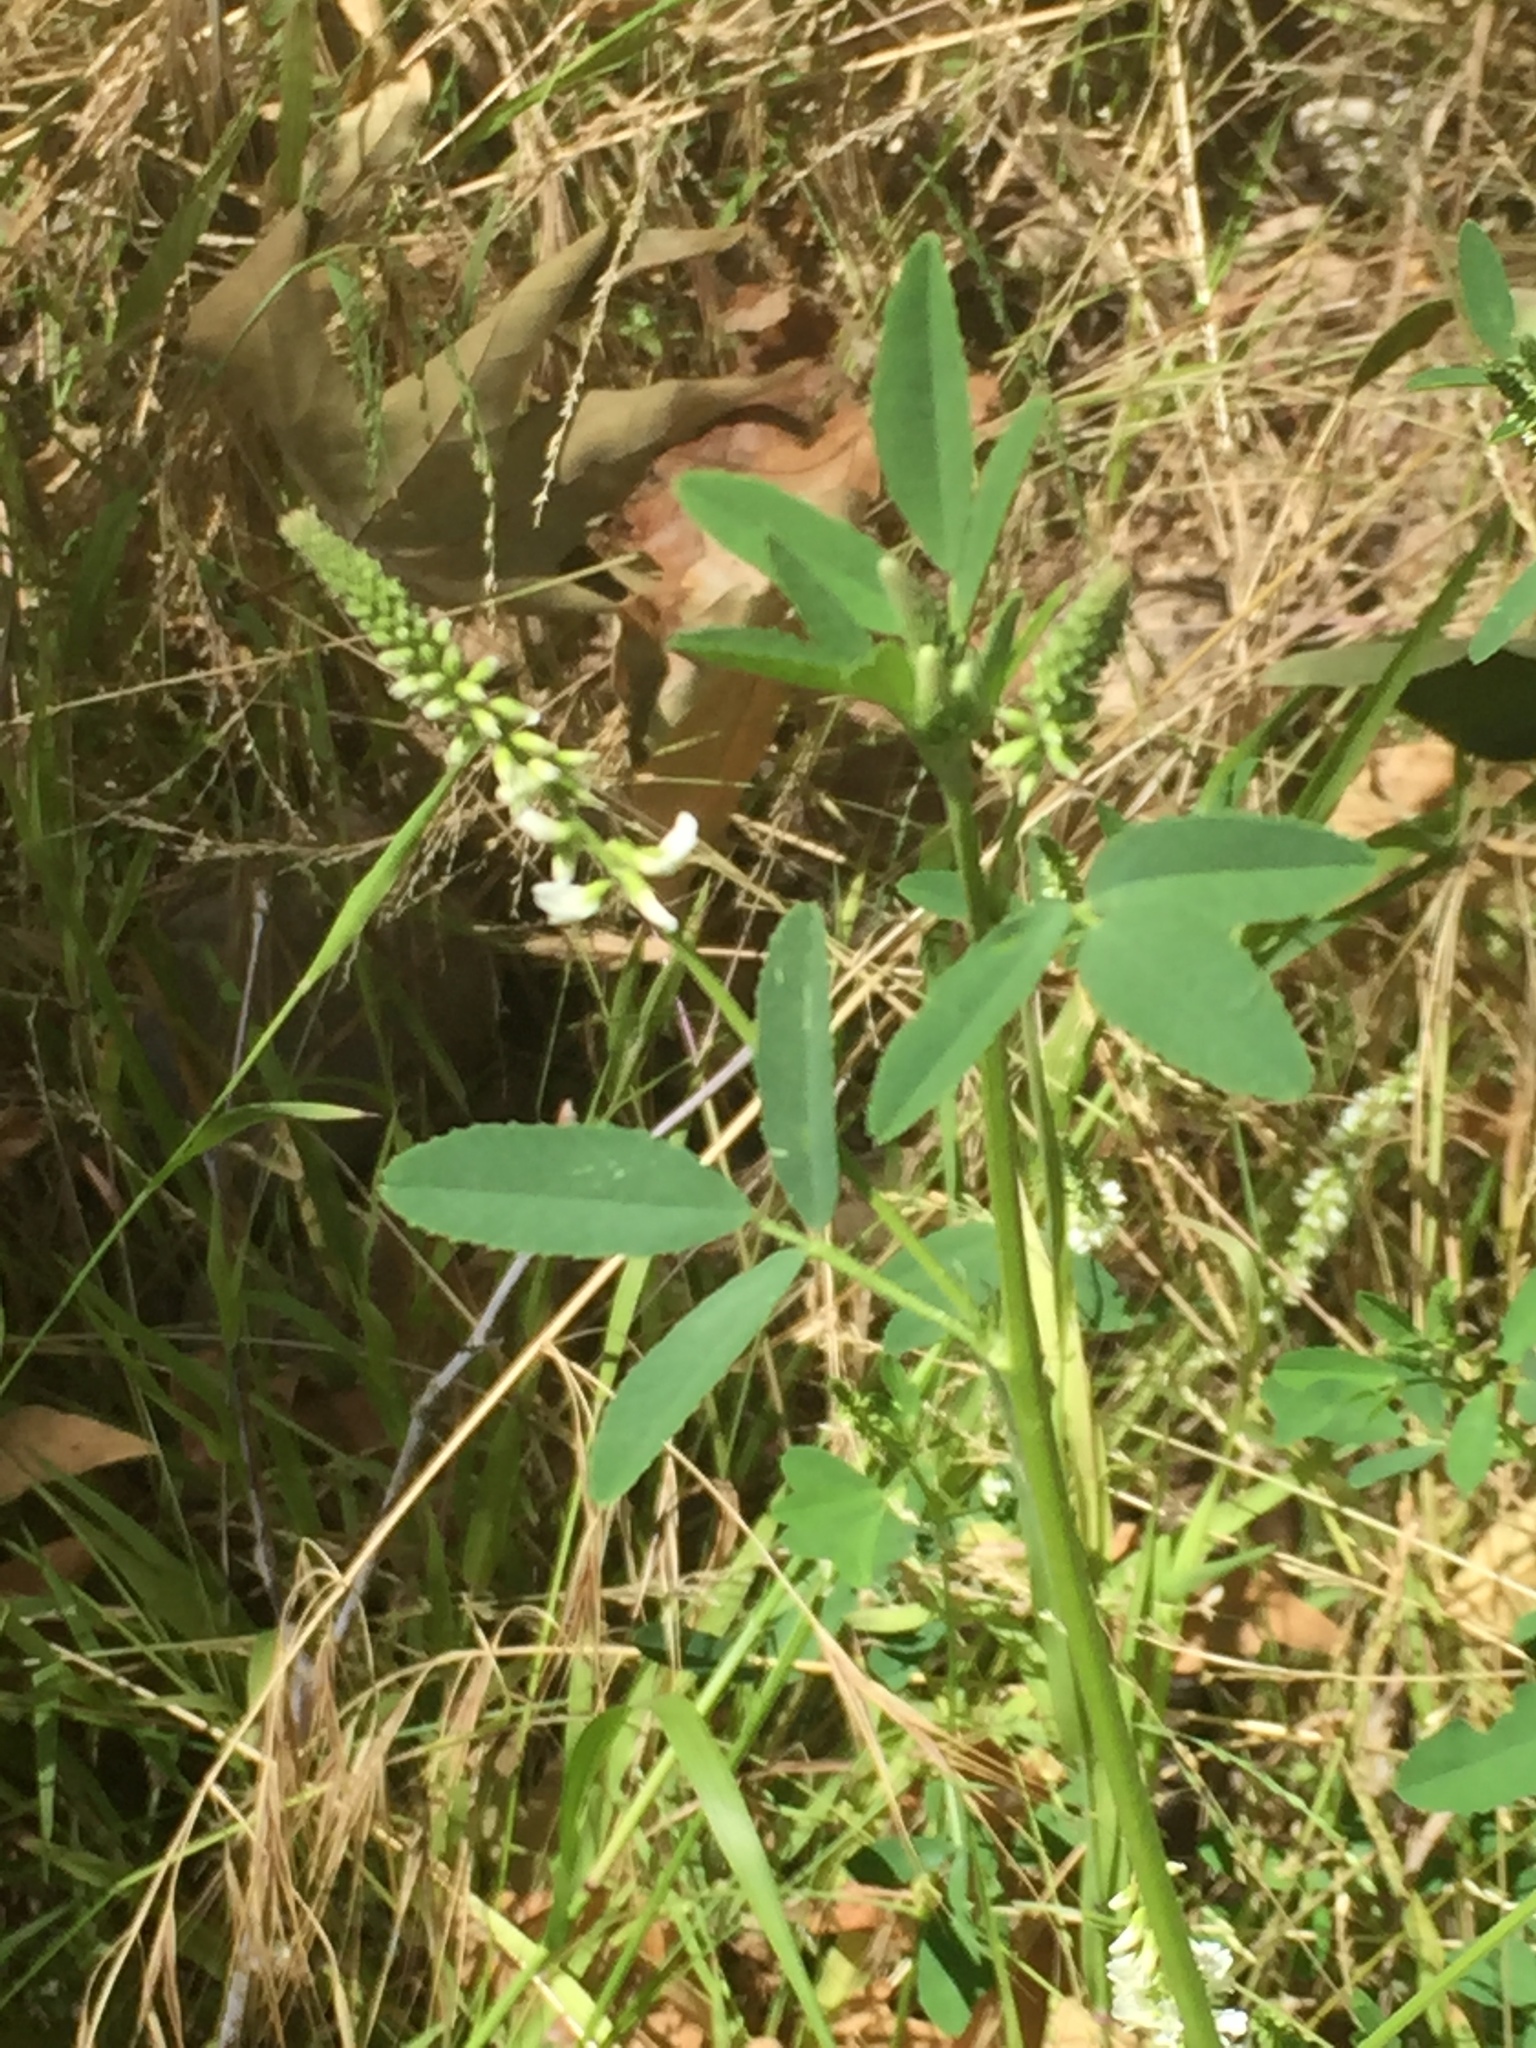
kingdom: Plantae
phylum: Tracheophyta
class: Magnoliopsida
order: Fabales
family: Fabaceae
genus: Melilotus
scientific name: Melilotus albus
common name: White melilot
